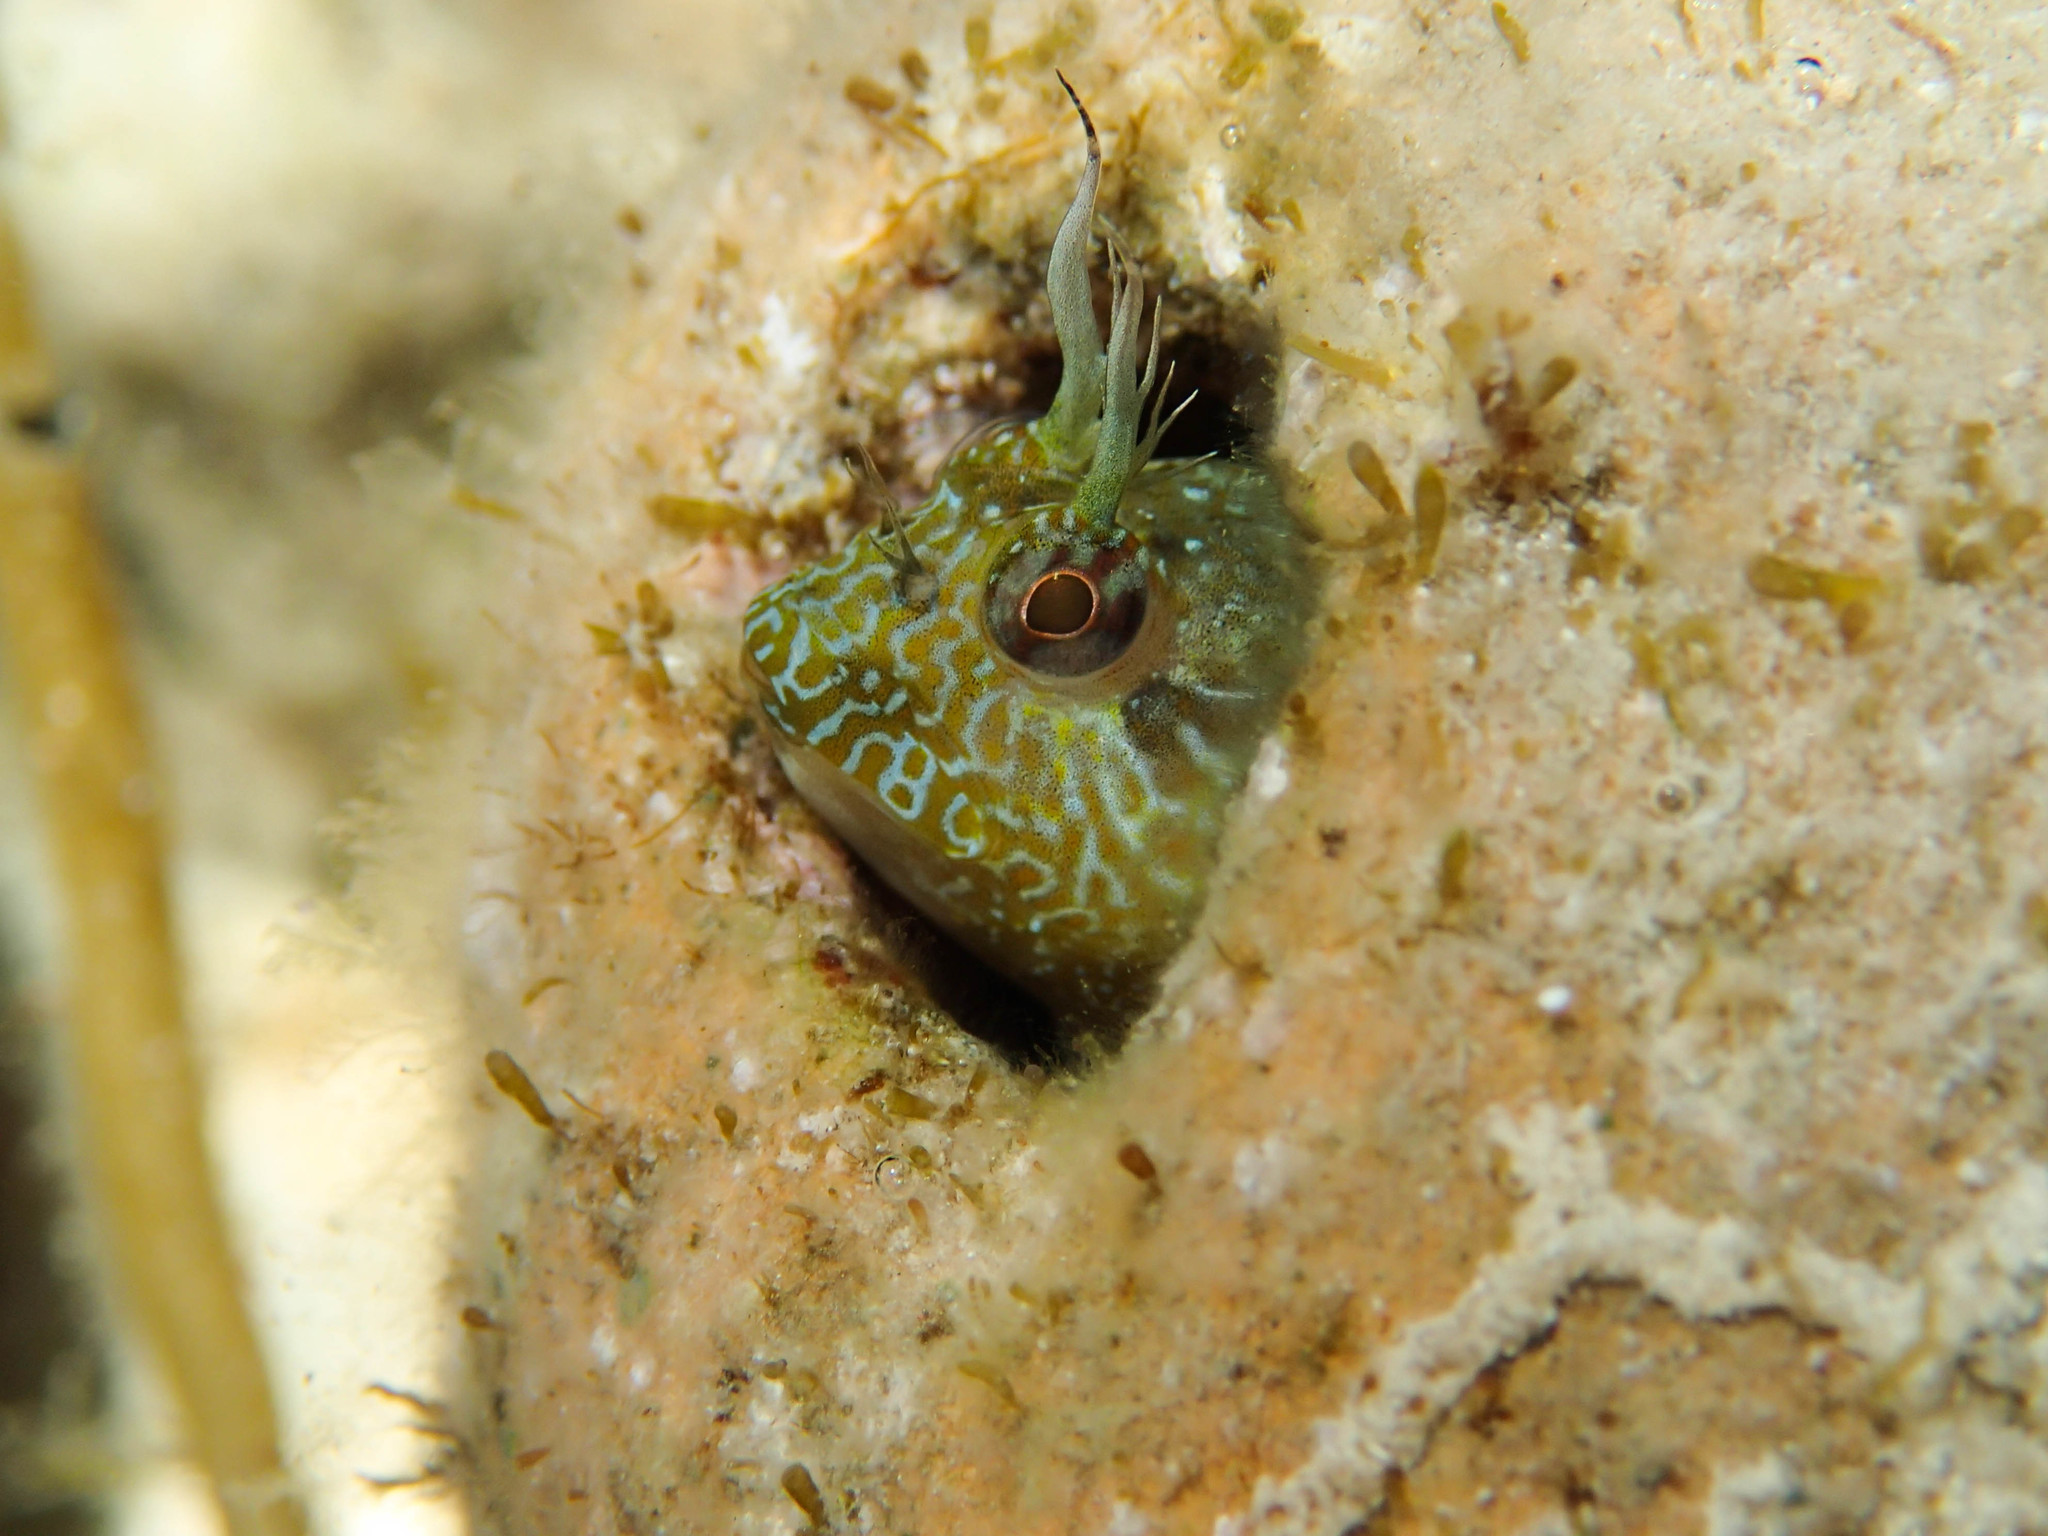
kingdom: Animalia
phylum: Chordata
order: Perciformes
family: Blenniidae
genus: Parablennius
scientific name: Parablennius incognitus
